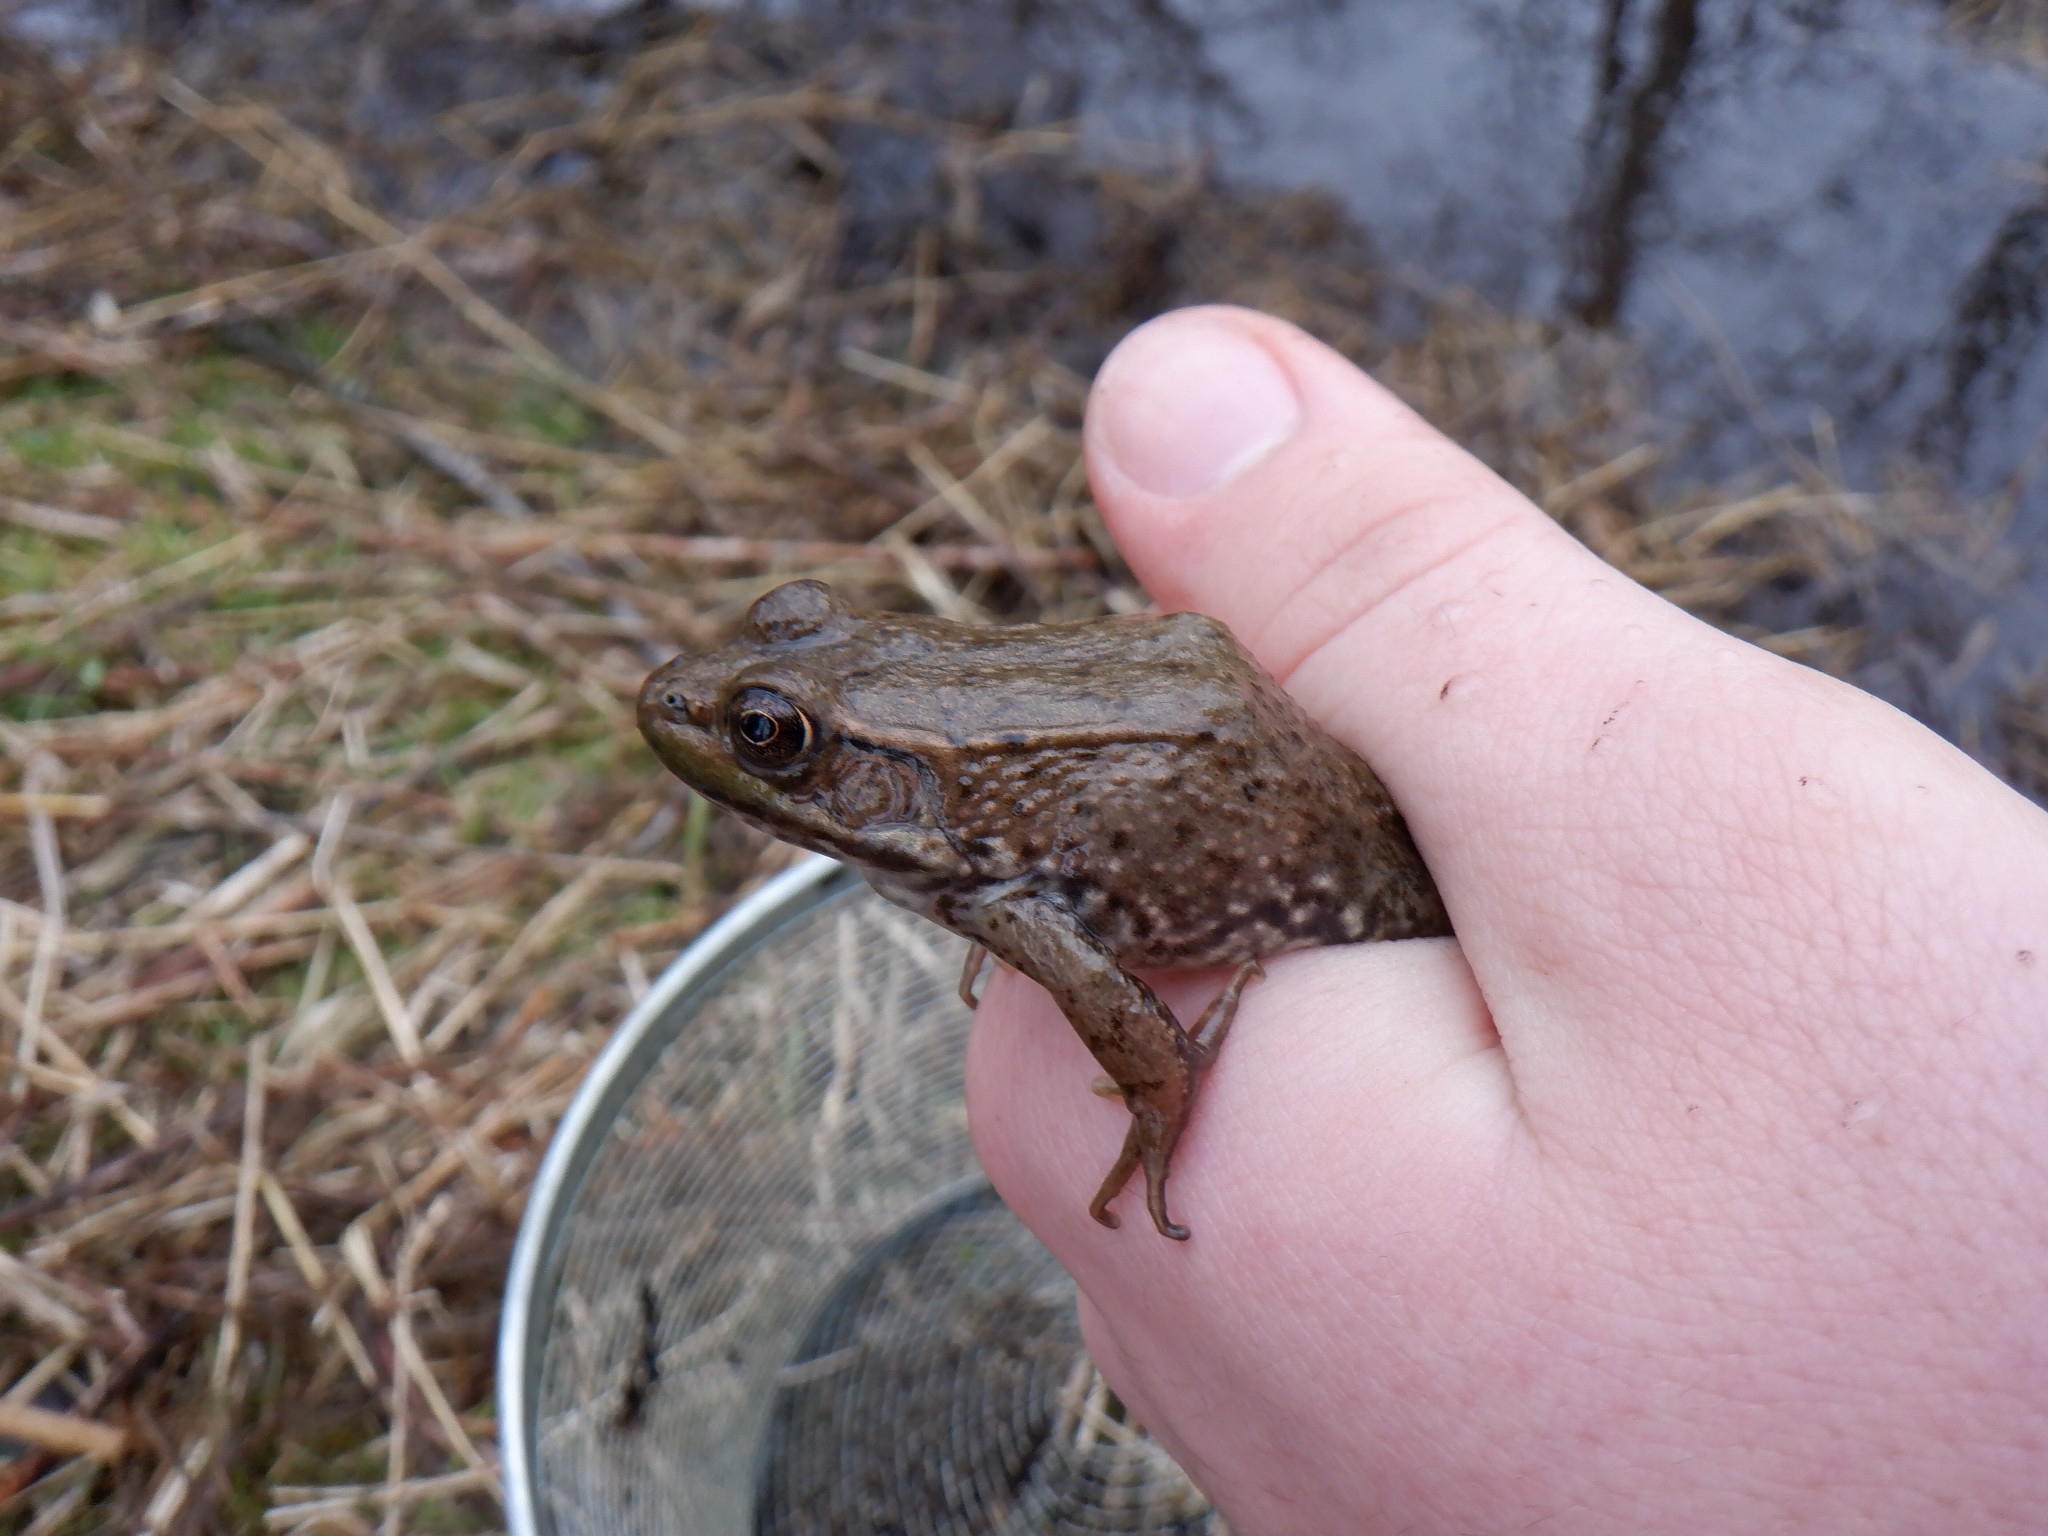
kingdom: Animalia
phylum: Chordata
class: Amphibia
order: Anura
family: Ranidae
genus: Lithobates
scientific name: Lithobates clamitans
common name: Green frog
